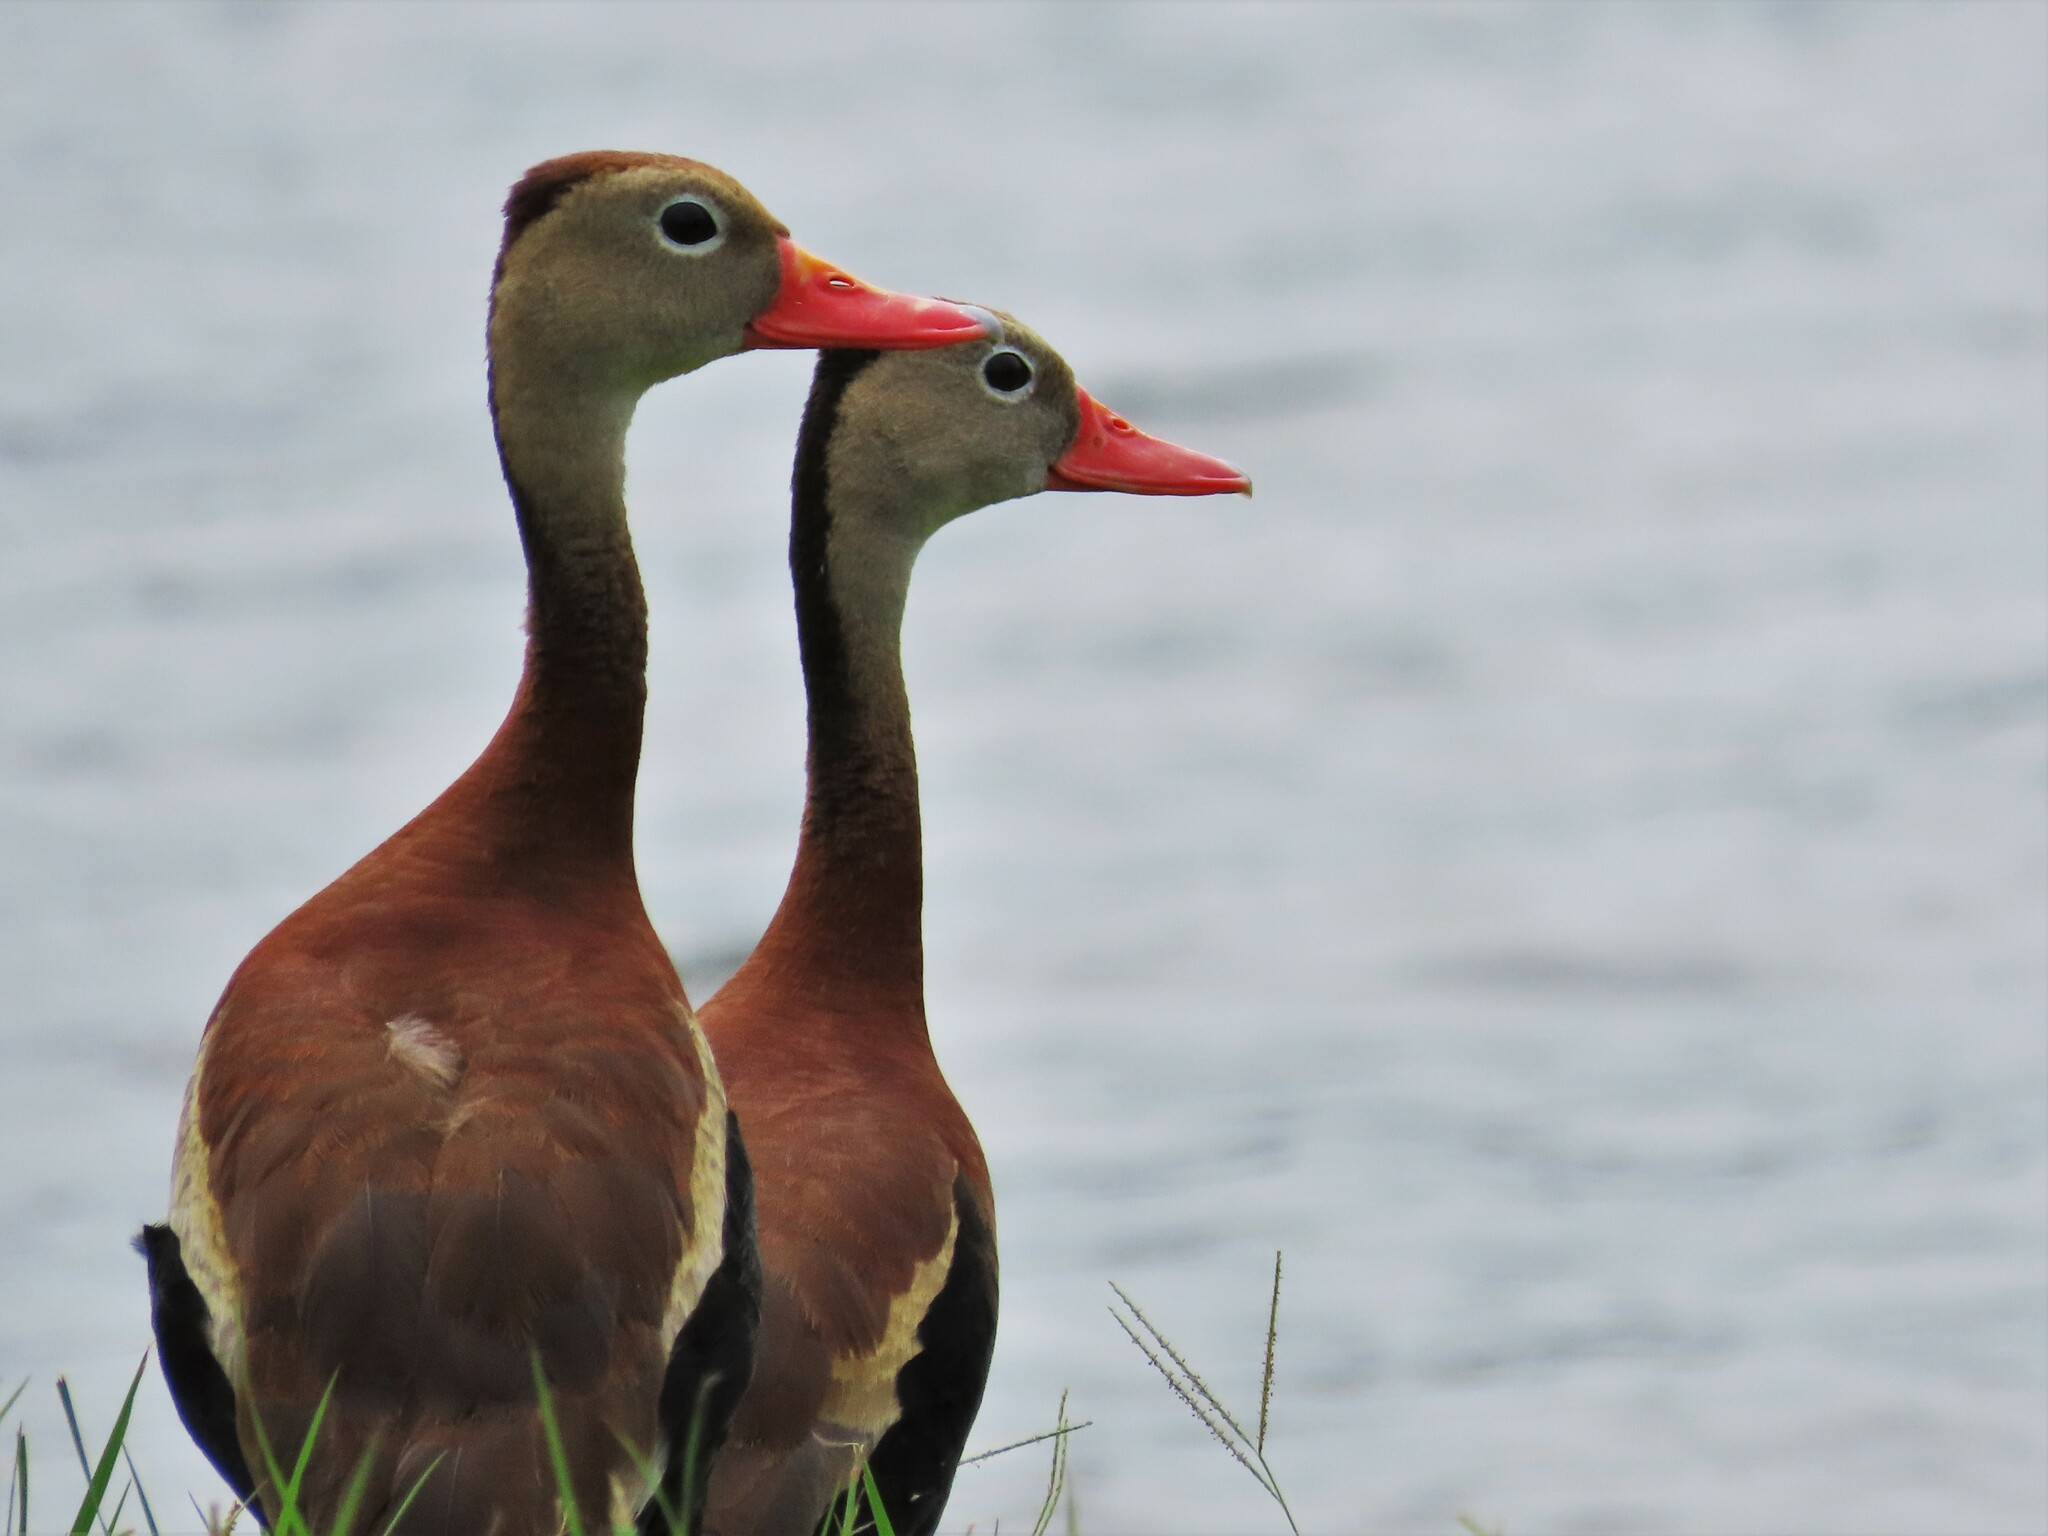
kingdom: Animalia
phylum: Chordata
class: Aves
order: Anseriformes
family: Anatidae
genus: Dendrocygna
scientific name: Dendrocygna autumnalis
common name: Black-bellied whistling duck
